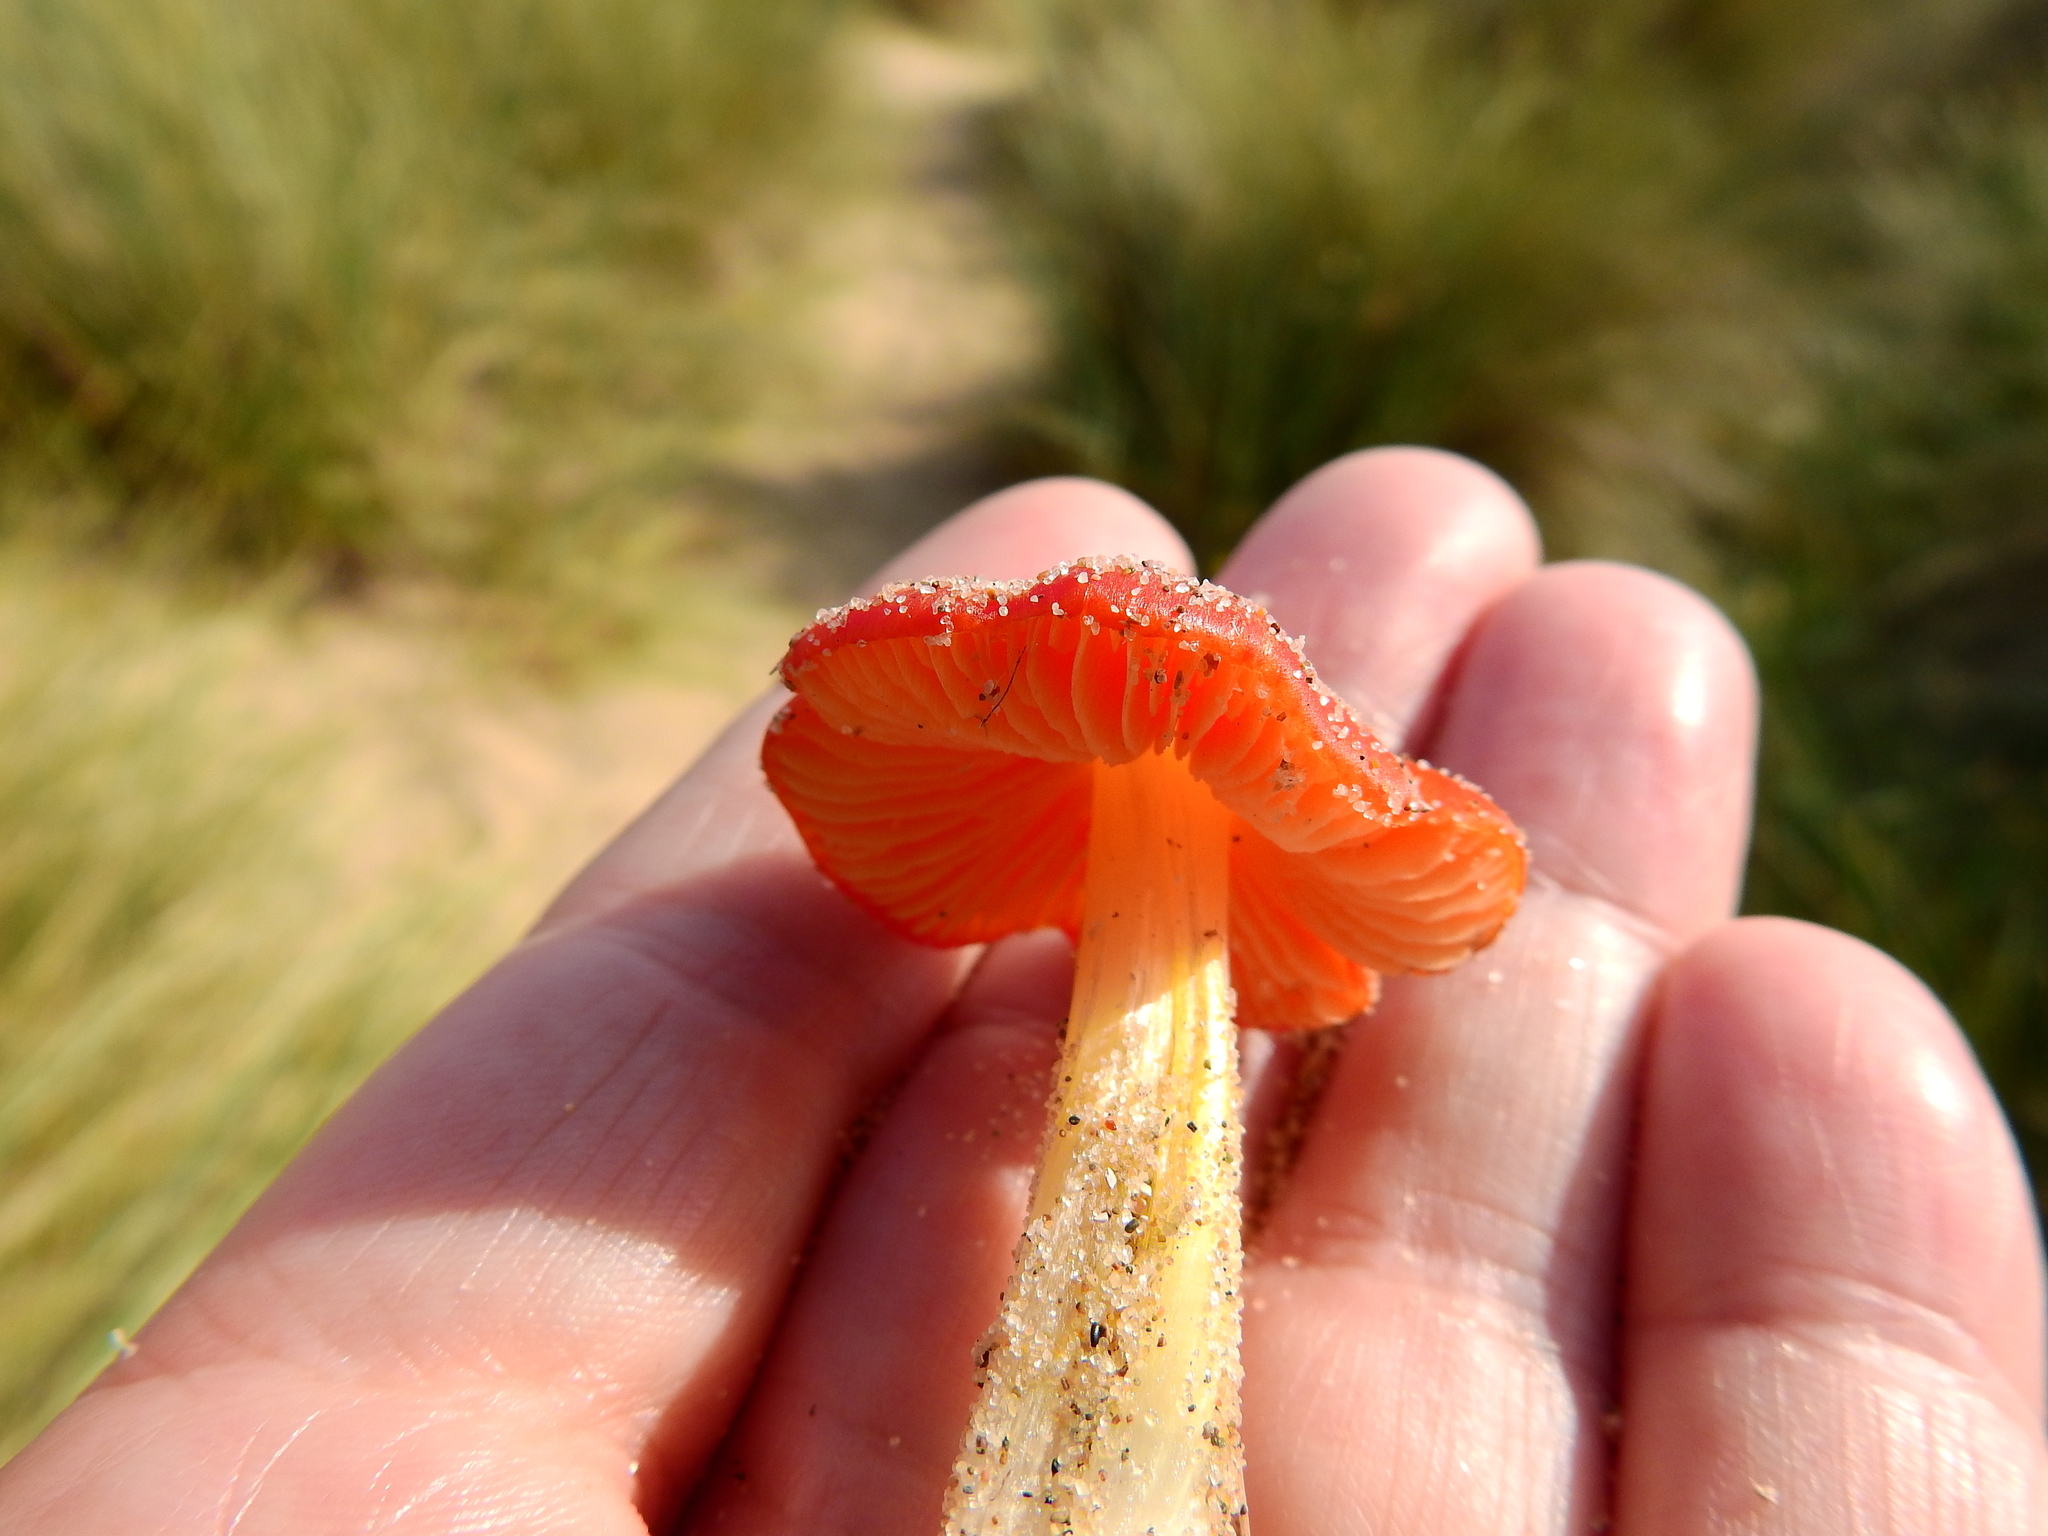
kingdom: Fungi
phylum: Basidiomycota
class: Agaricomycetes
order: Agaricales
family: Hygrophoraceae
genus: Hygrocybe
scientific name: Hygrocybe conicoides
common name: Dune waxcap
